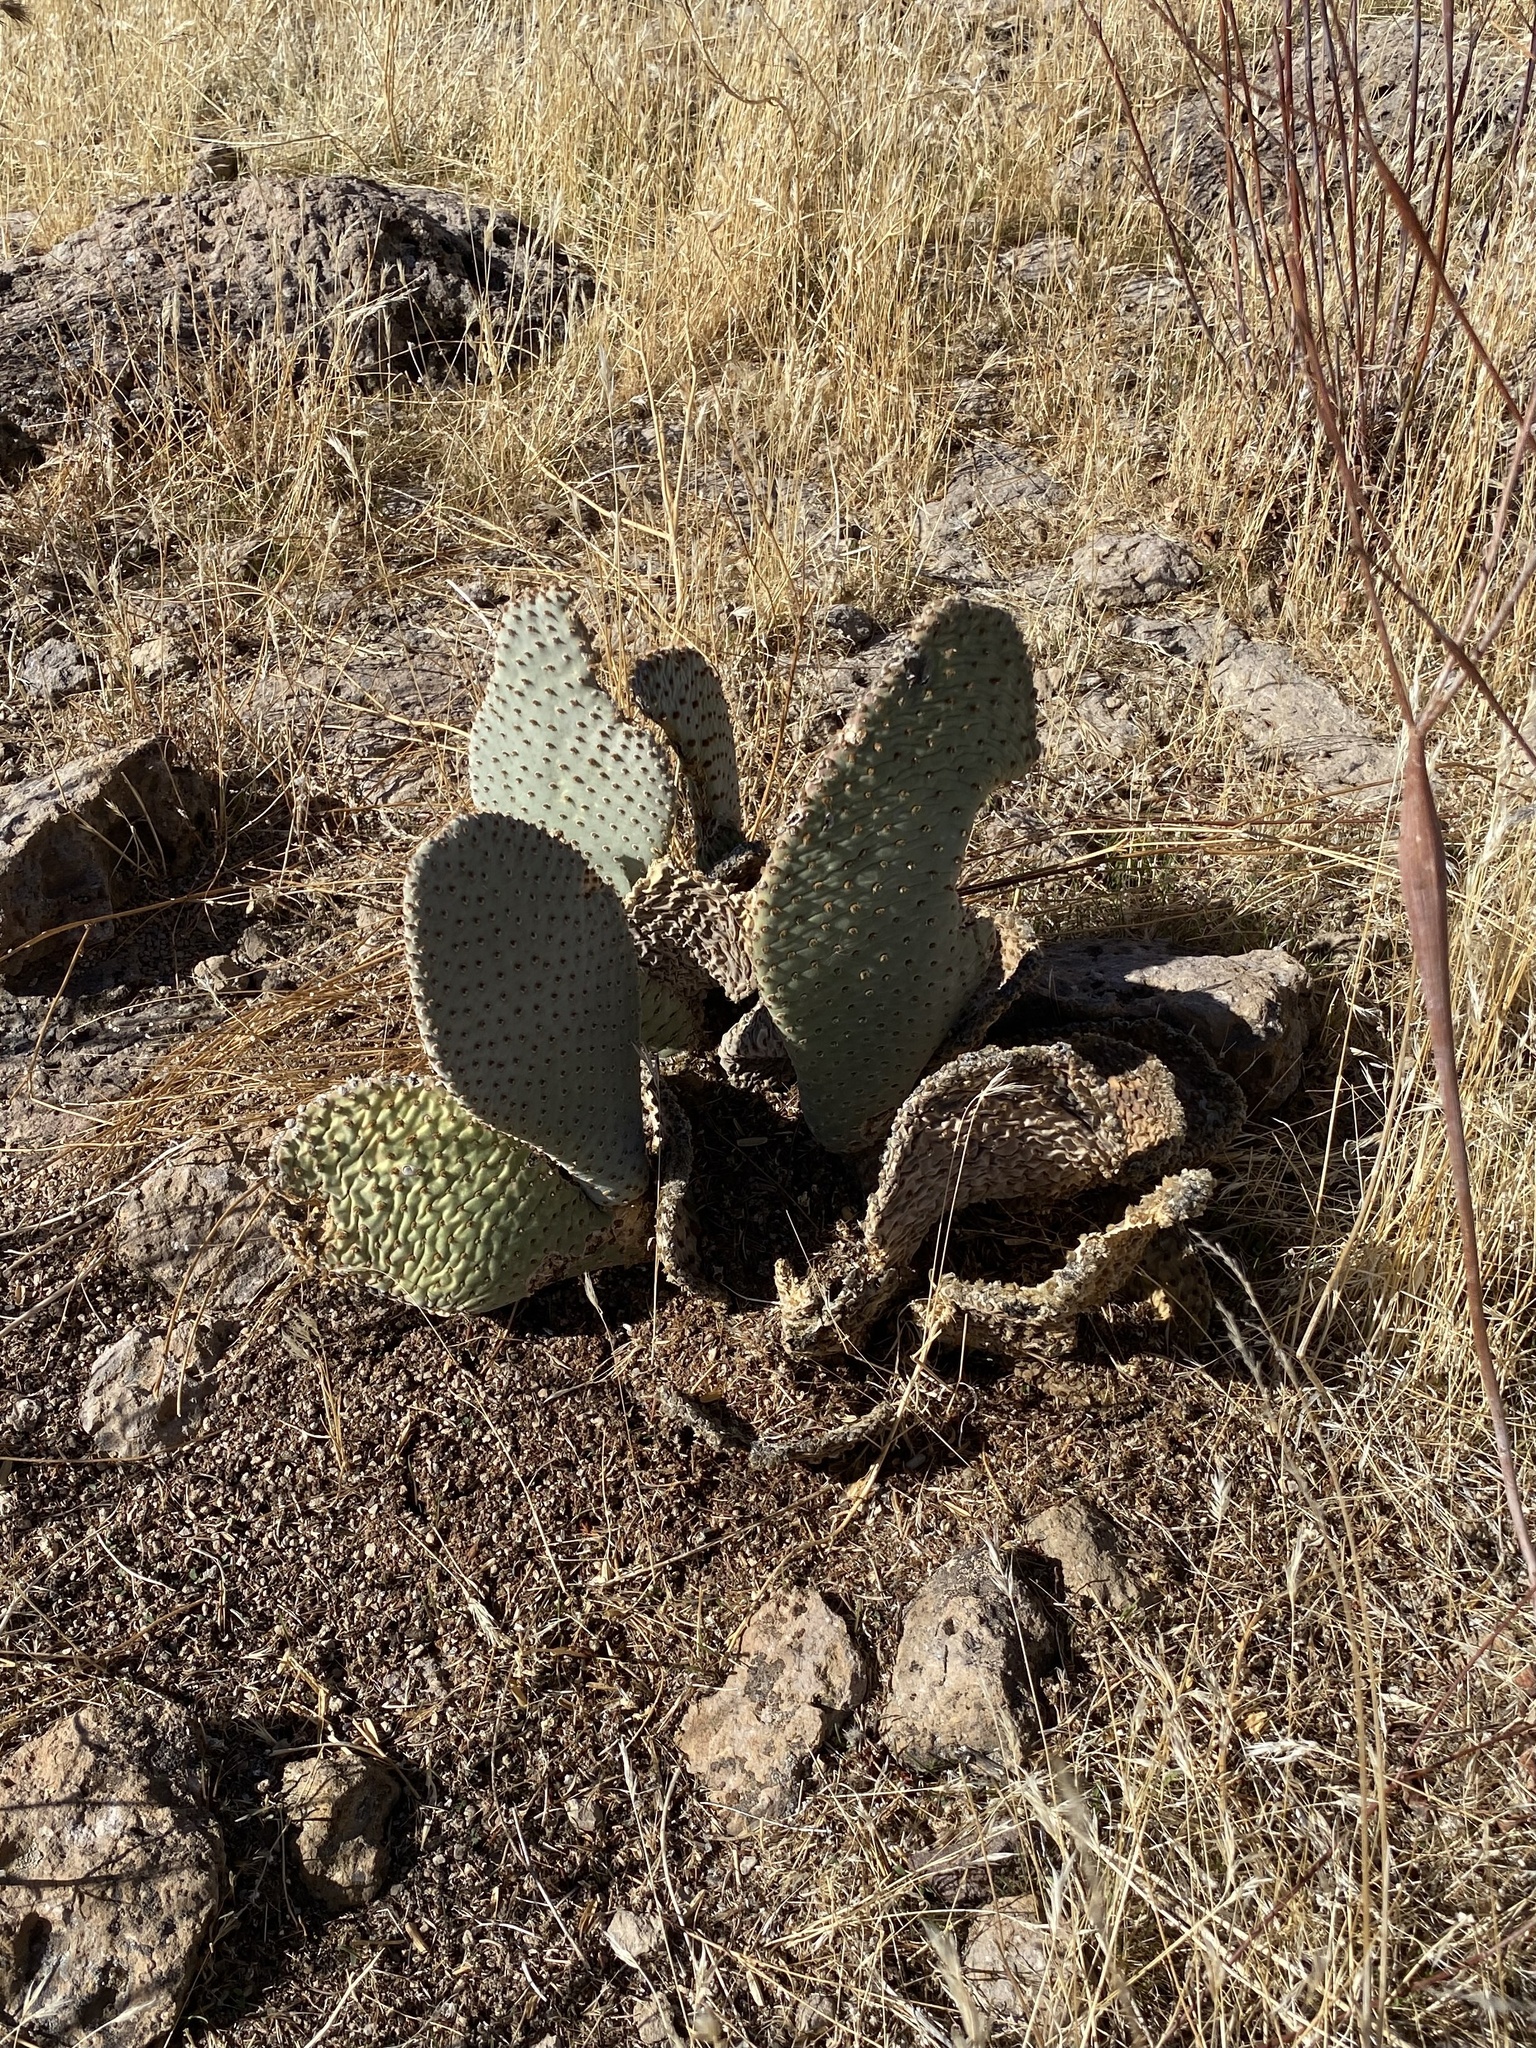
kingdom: Plantae
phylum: Tracheophyta
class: Magnoliopsida
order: Caryophyllales
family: Cactaceae
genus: Opuntia
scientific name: Opuntia basilaris
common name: Beavertail prickly-pear
